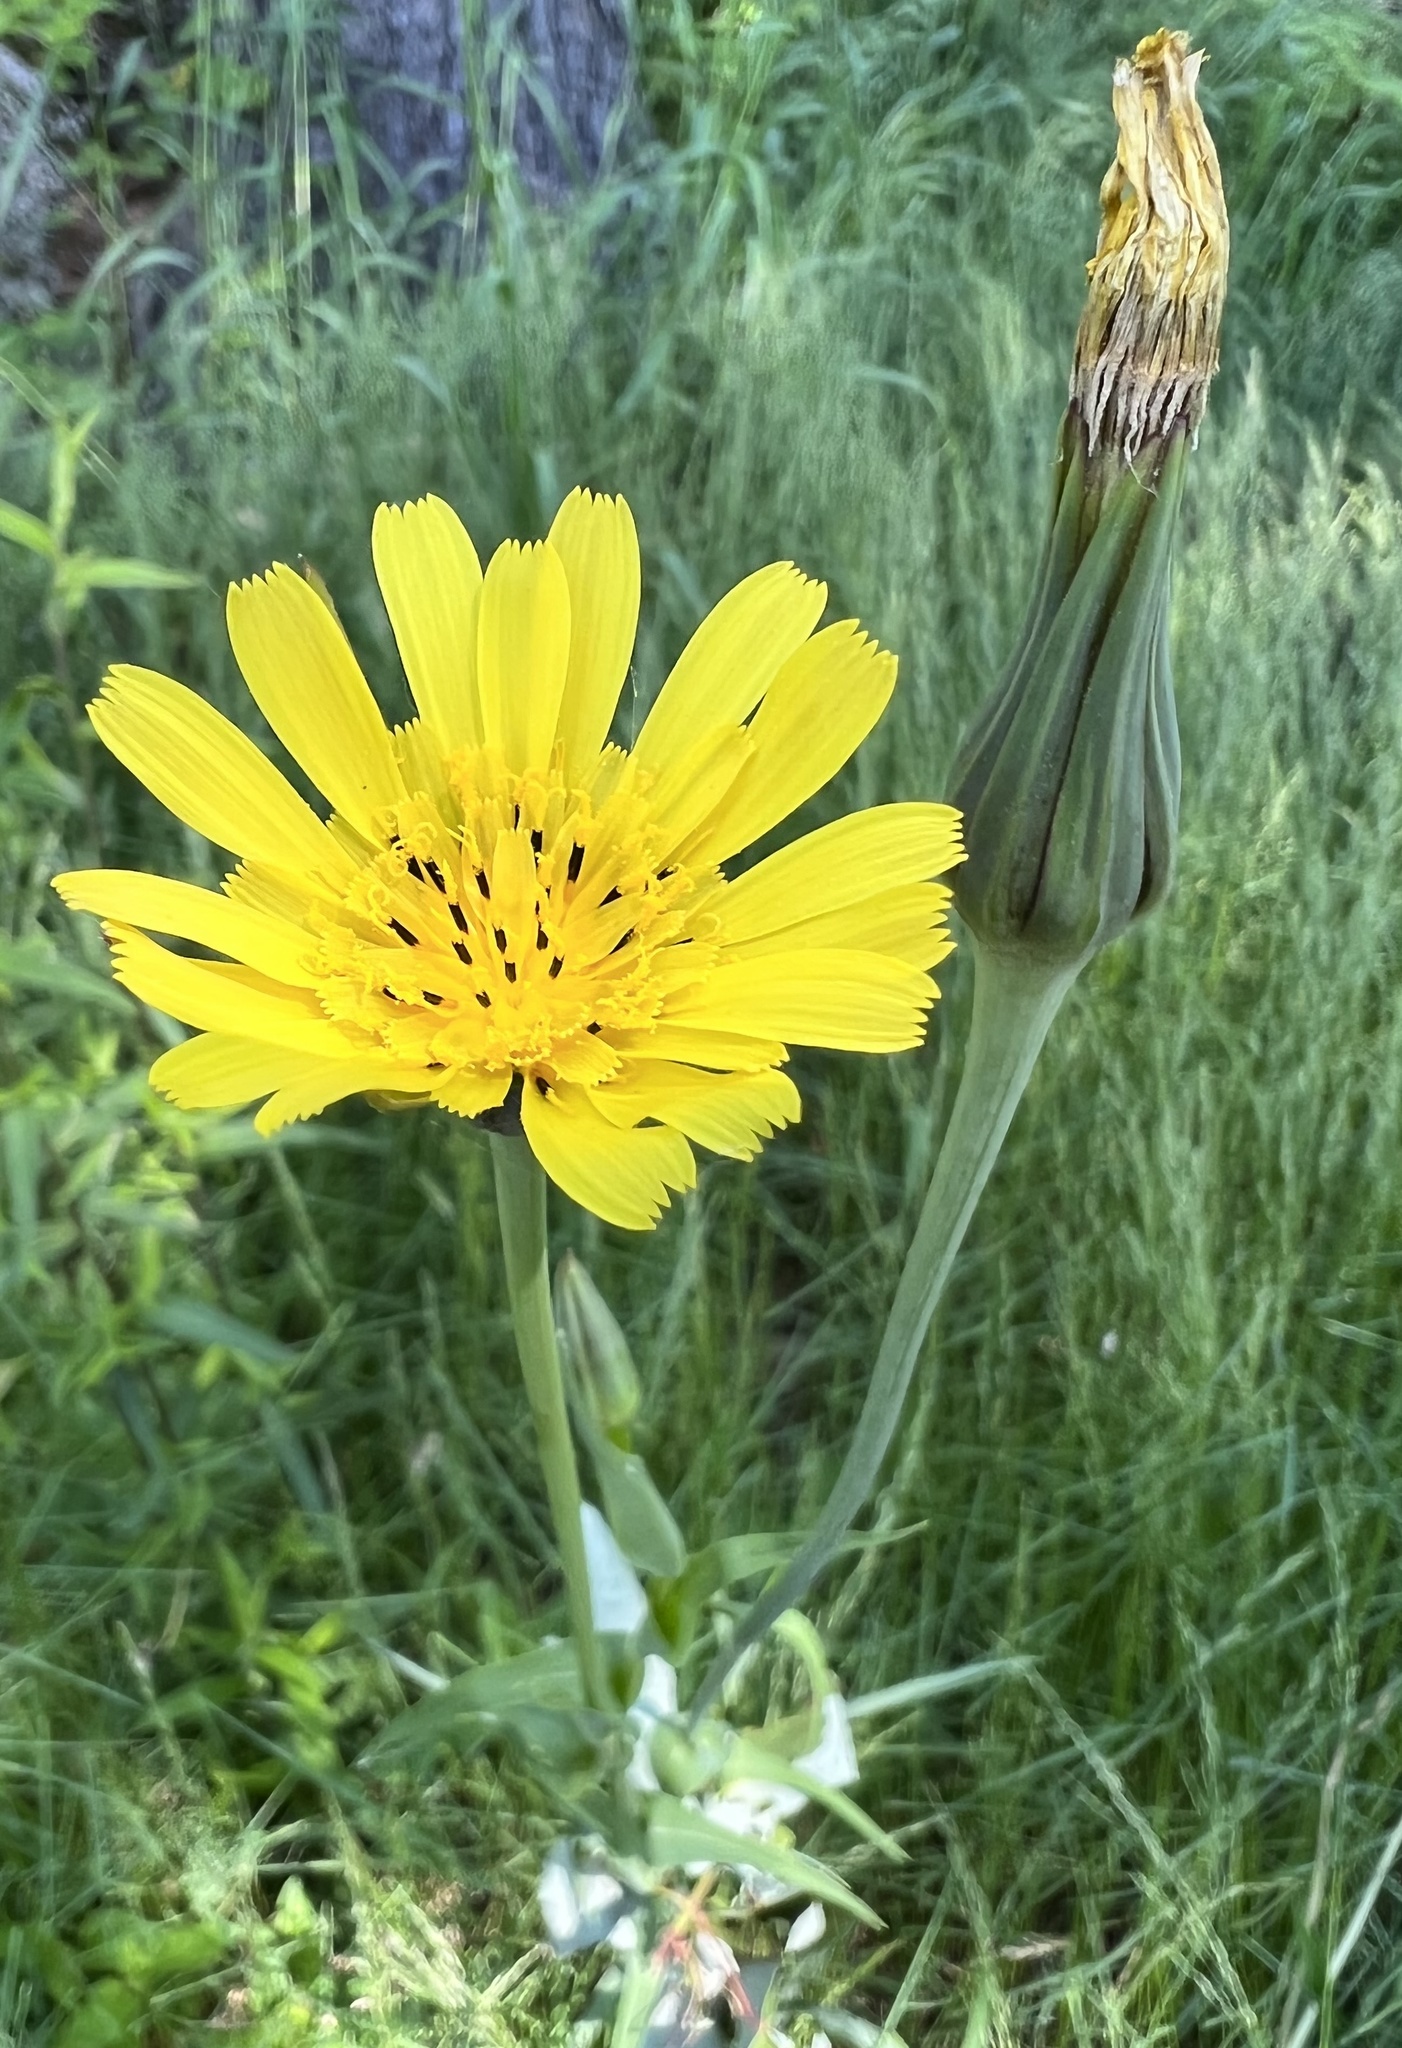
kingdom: Plantae
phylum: Tracheophyta
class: Magnoliopsida
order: Asterales
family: Asteraceae
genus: Tragopogon
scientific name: Tragopogon pratensis
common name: Goat's-beard
